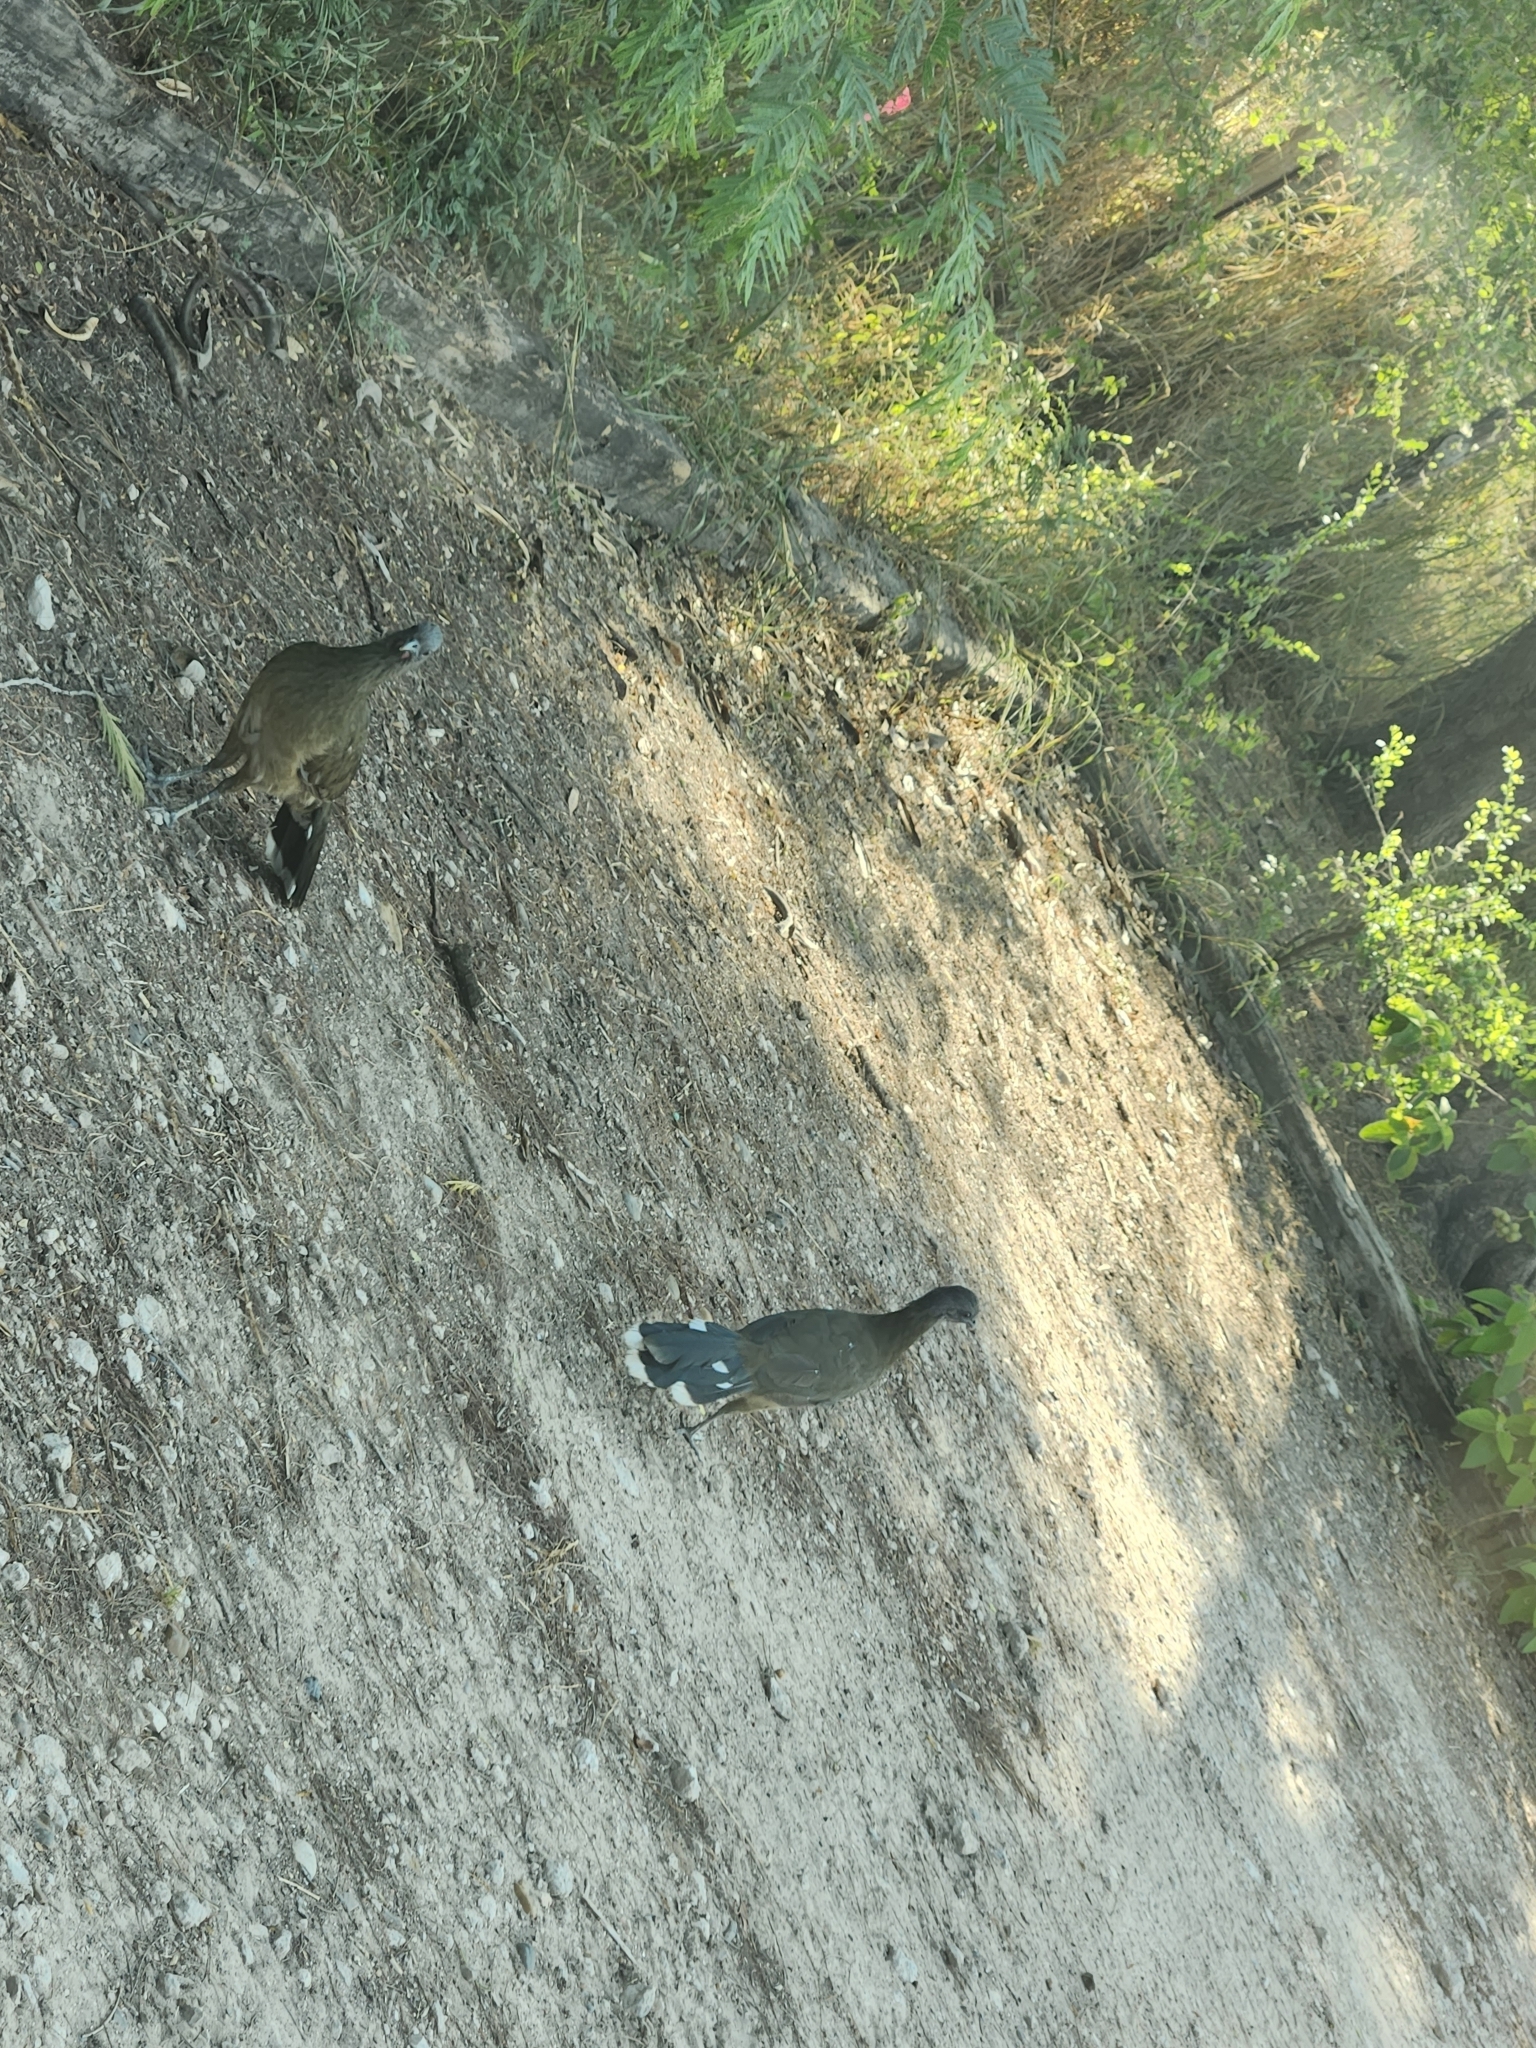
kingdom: Animalia
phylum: Chordata
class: Aves
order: Galliformes
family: Cracidae
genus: Ortalis
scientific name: Ortalis vetula
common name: Plain chachalaca
